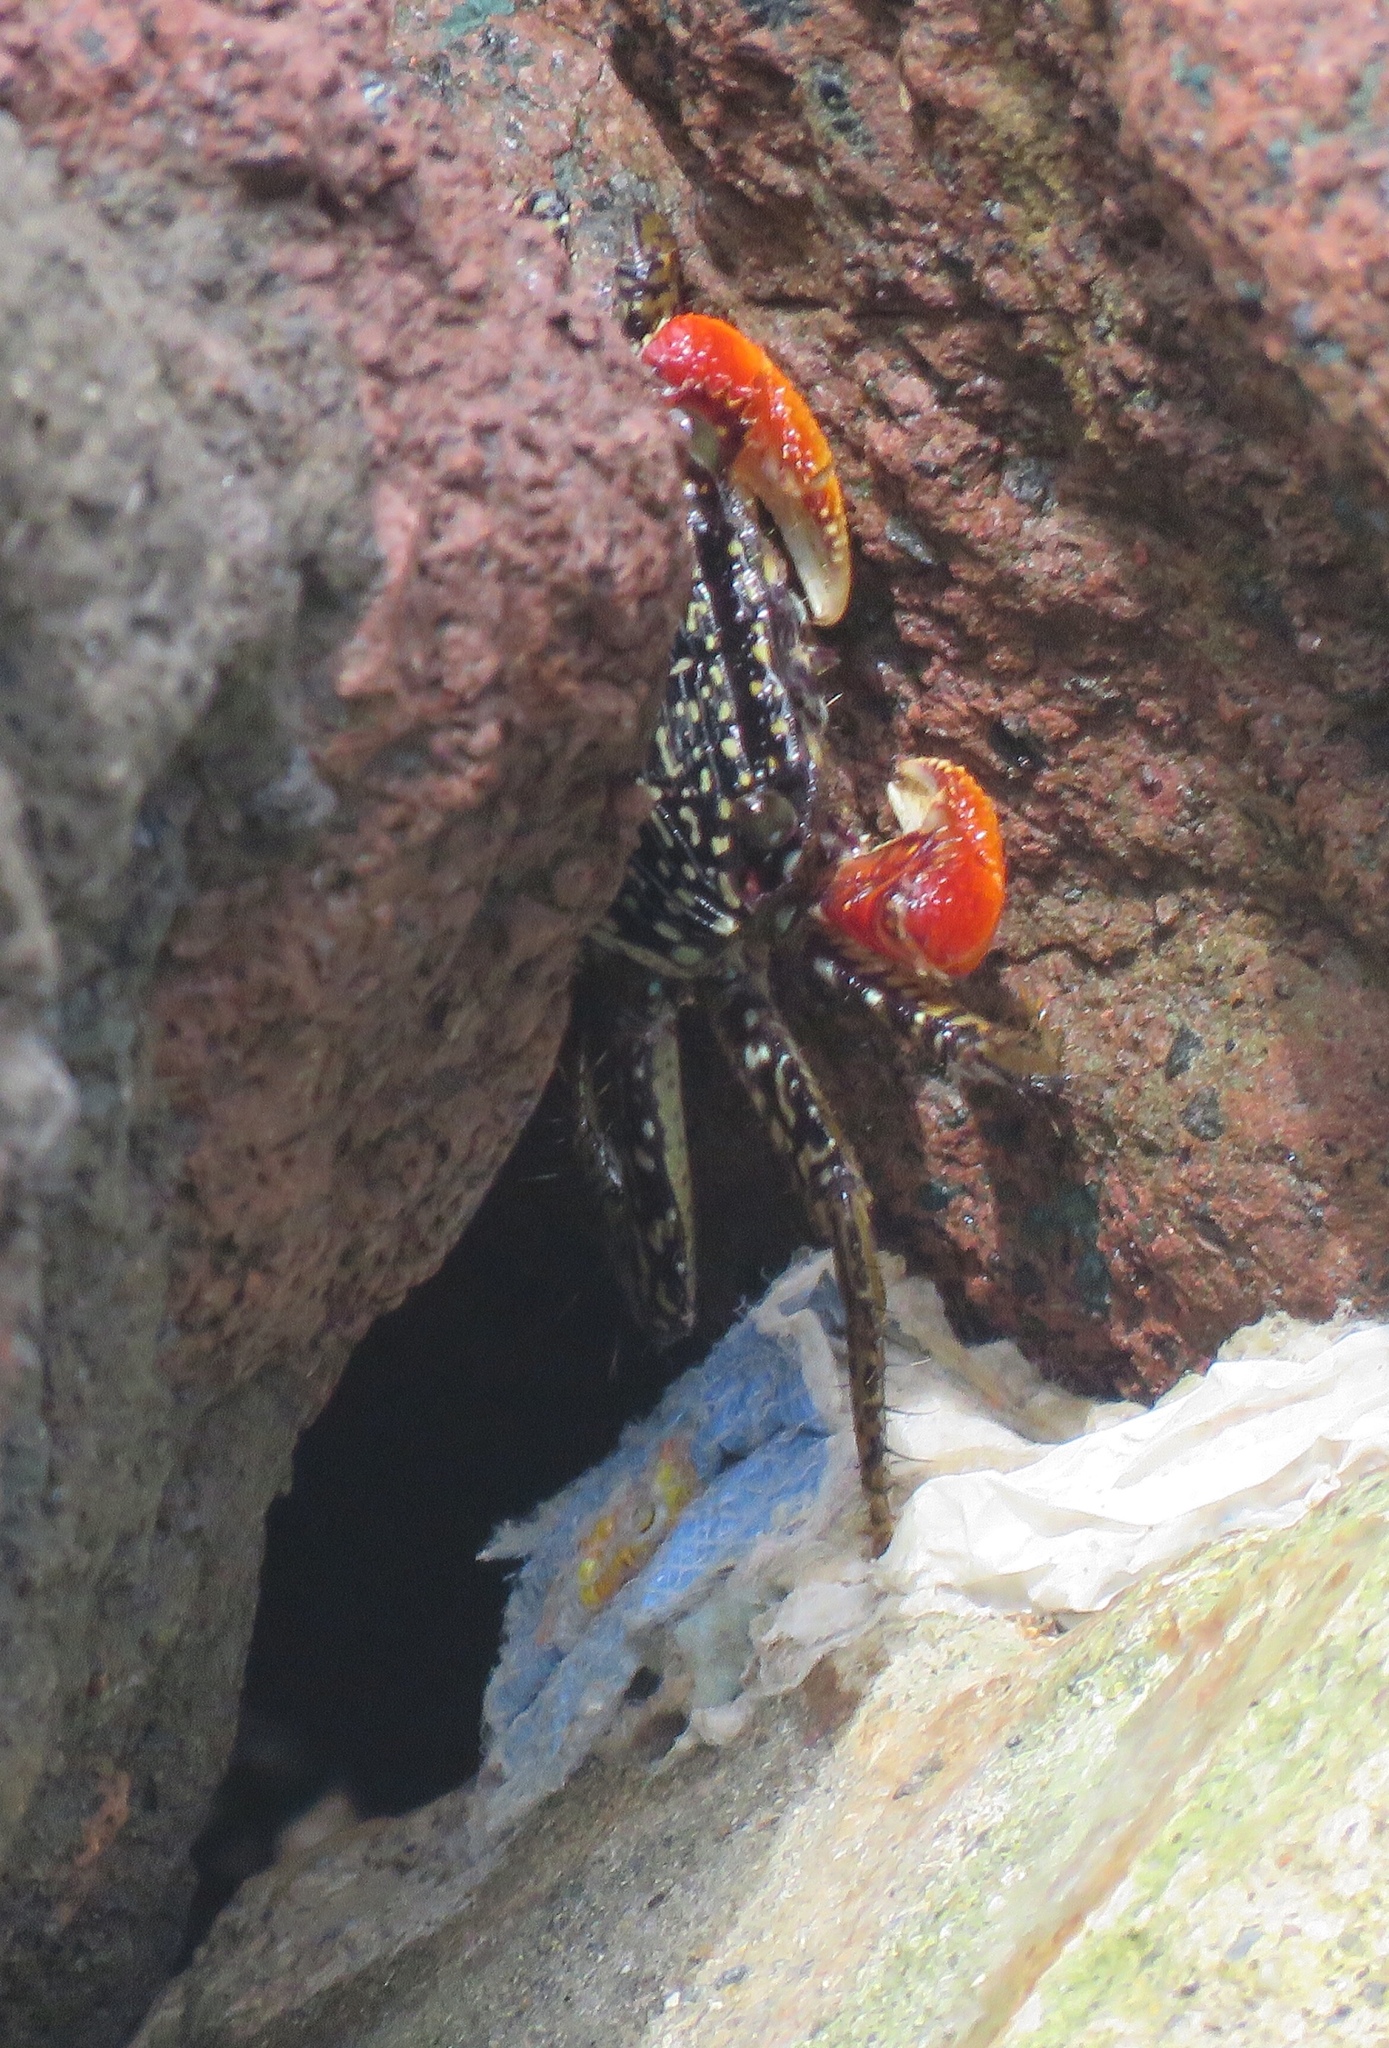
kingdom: Animalia
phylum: Arthropoda
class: Malacostraca
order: Decapoda
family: Grapsidae
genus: Goniopsis
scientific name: Goniopsis pulchra
